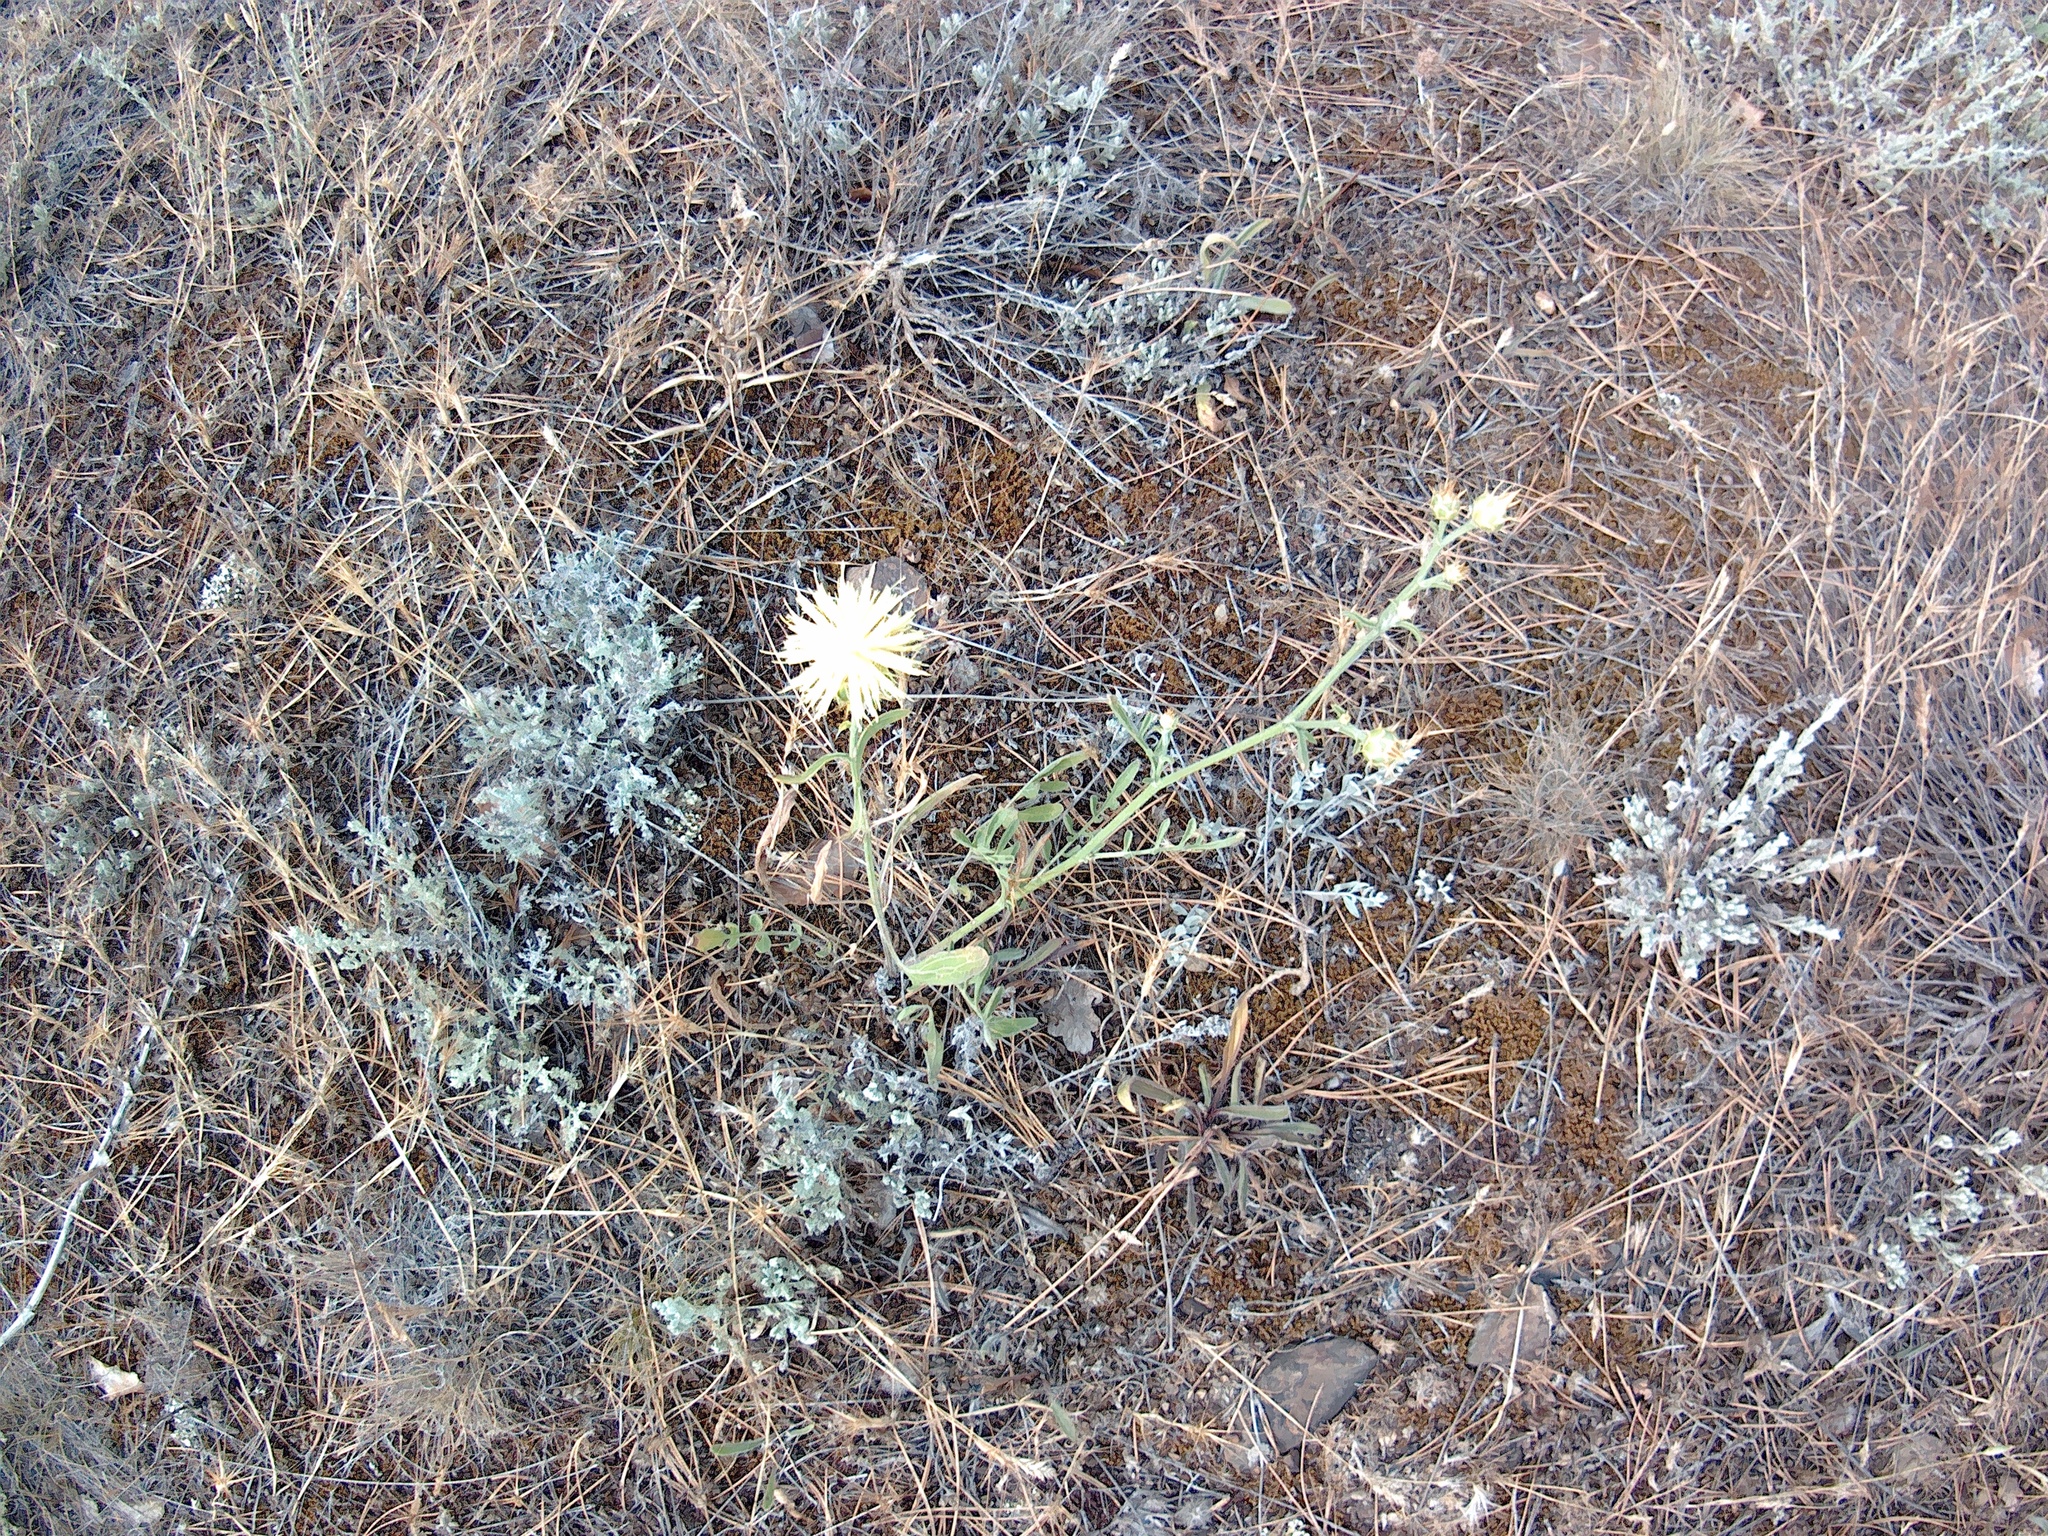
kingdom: Plantae
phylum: Tracheophyta
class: Magnoliopsida
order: Asterales
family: Asteraceae
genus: Centaurea
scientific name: Centaurea salonitana
